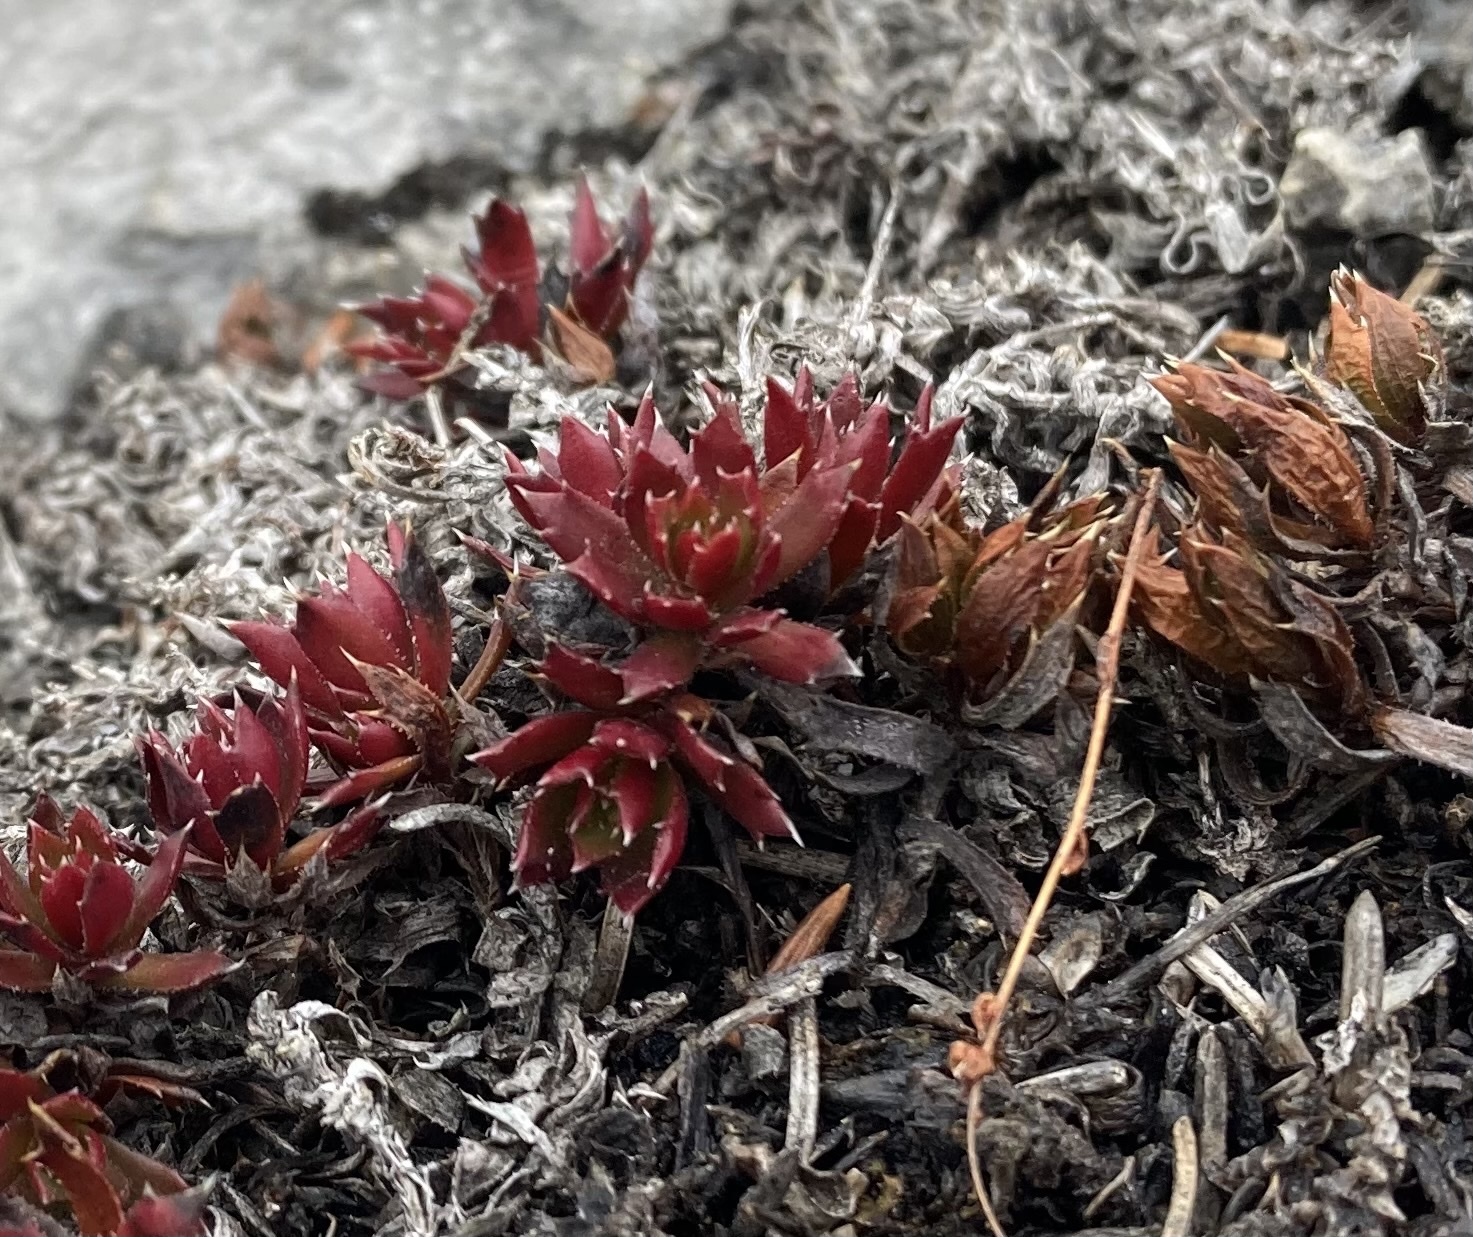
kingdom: Plantae
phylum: Tracheophyta
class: Magnoliopsida
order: Saxifragales
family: Saxifragaceae
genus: Saxifraga
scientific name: Saxifraga tricuspidata
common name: Prickly saxifrage
